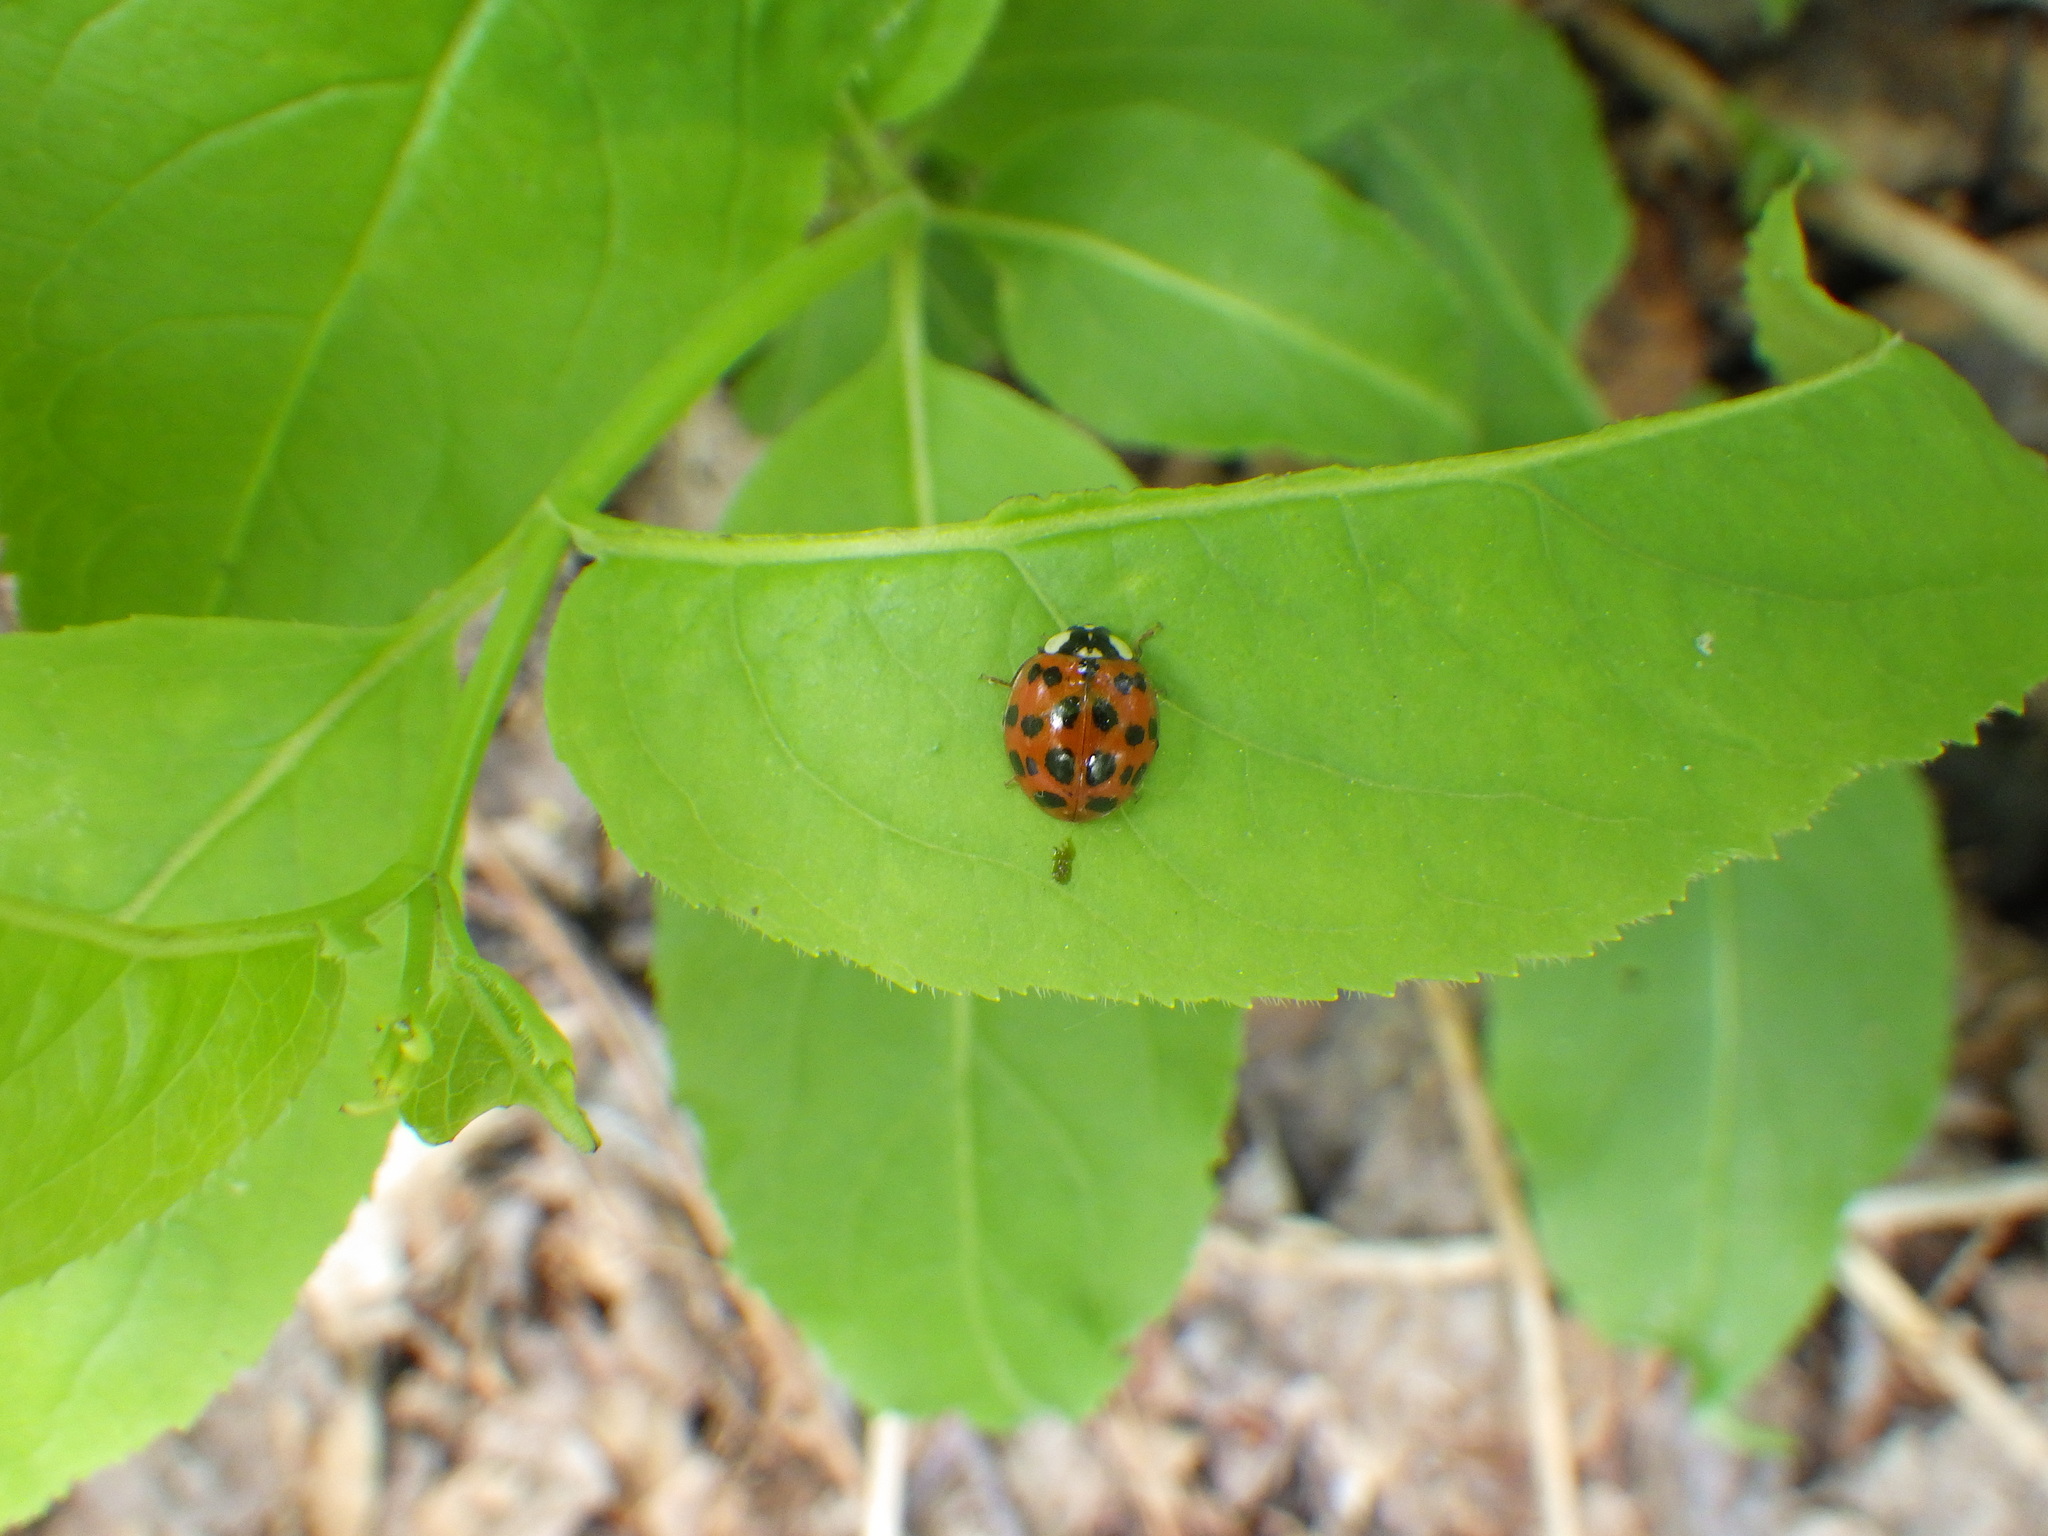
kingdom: Animalia
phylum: Arthropoda
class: Insecta
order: Coleoptera
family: Coccinellidae
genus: Harmonia
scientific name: Harmonia axyridis
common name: Harlequin ladybird
